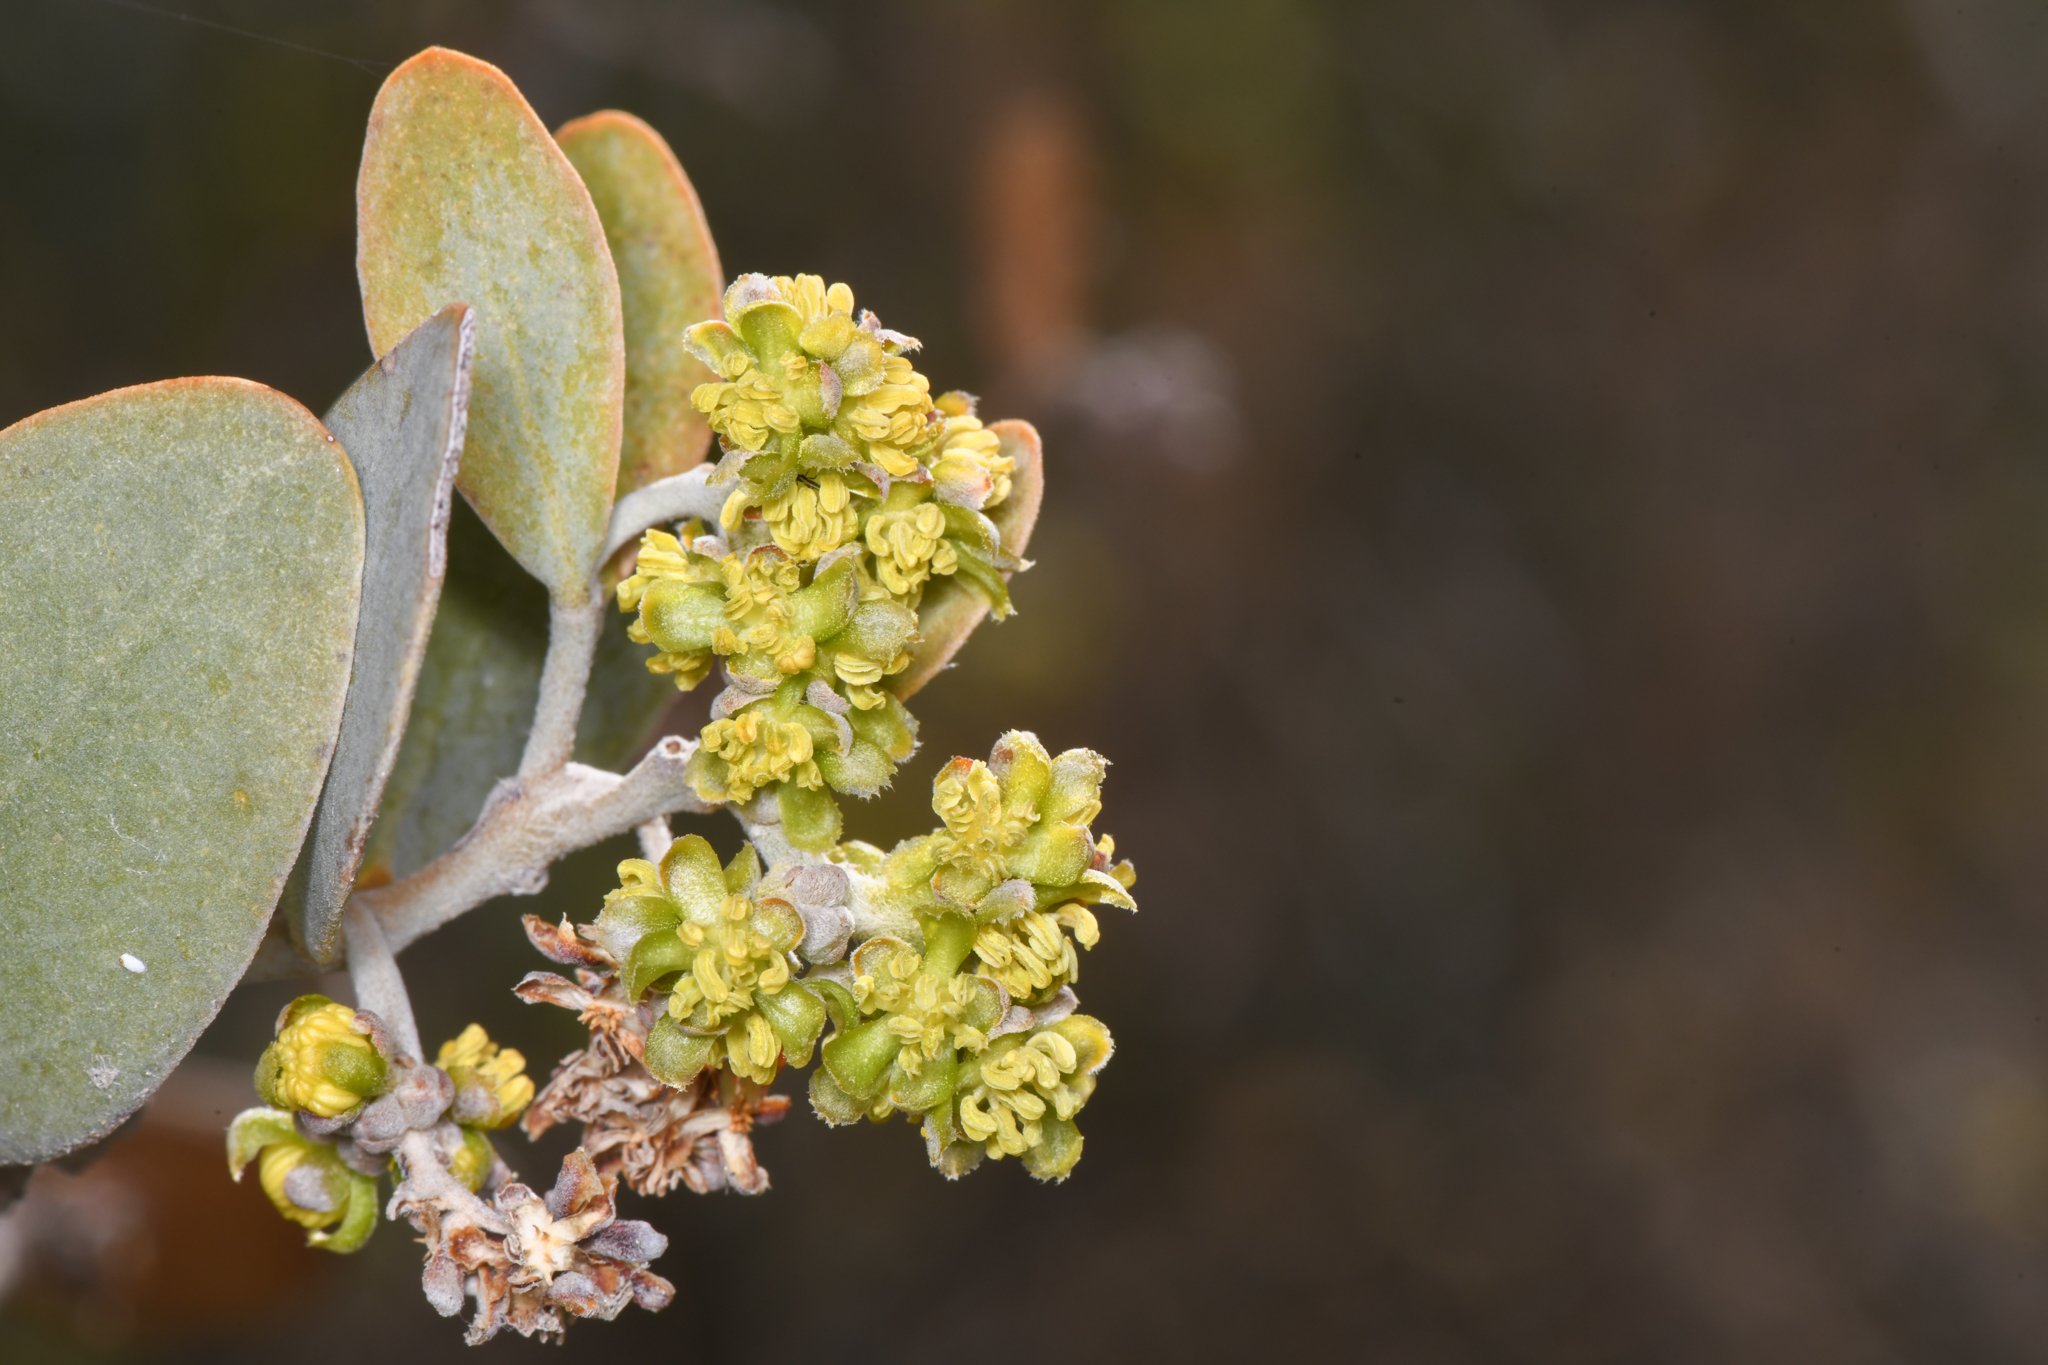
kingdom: Plantae
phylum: Tracheophyta
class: Magnoliopsida
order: Caryophyllales
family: Simmondsiaceae
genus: Simmondsia
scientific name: Simmondsia chinensis
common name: Jojoba
